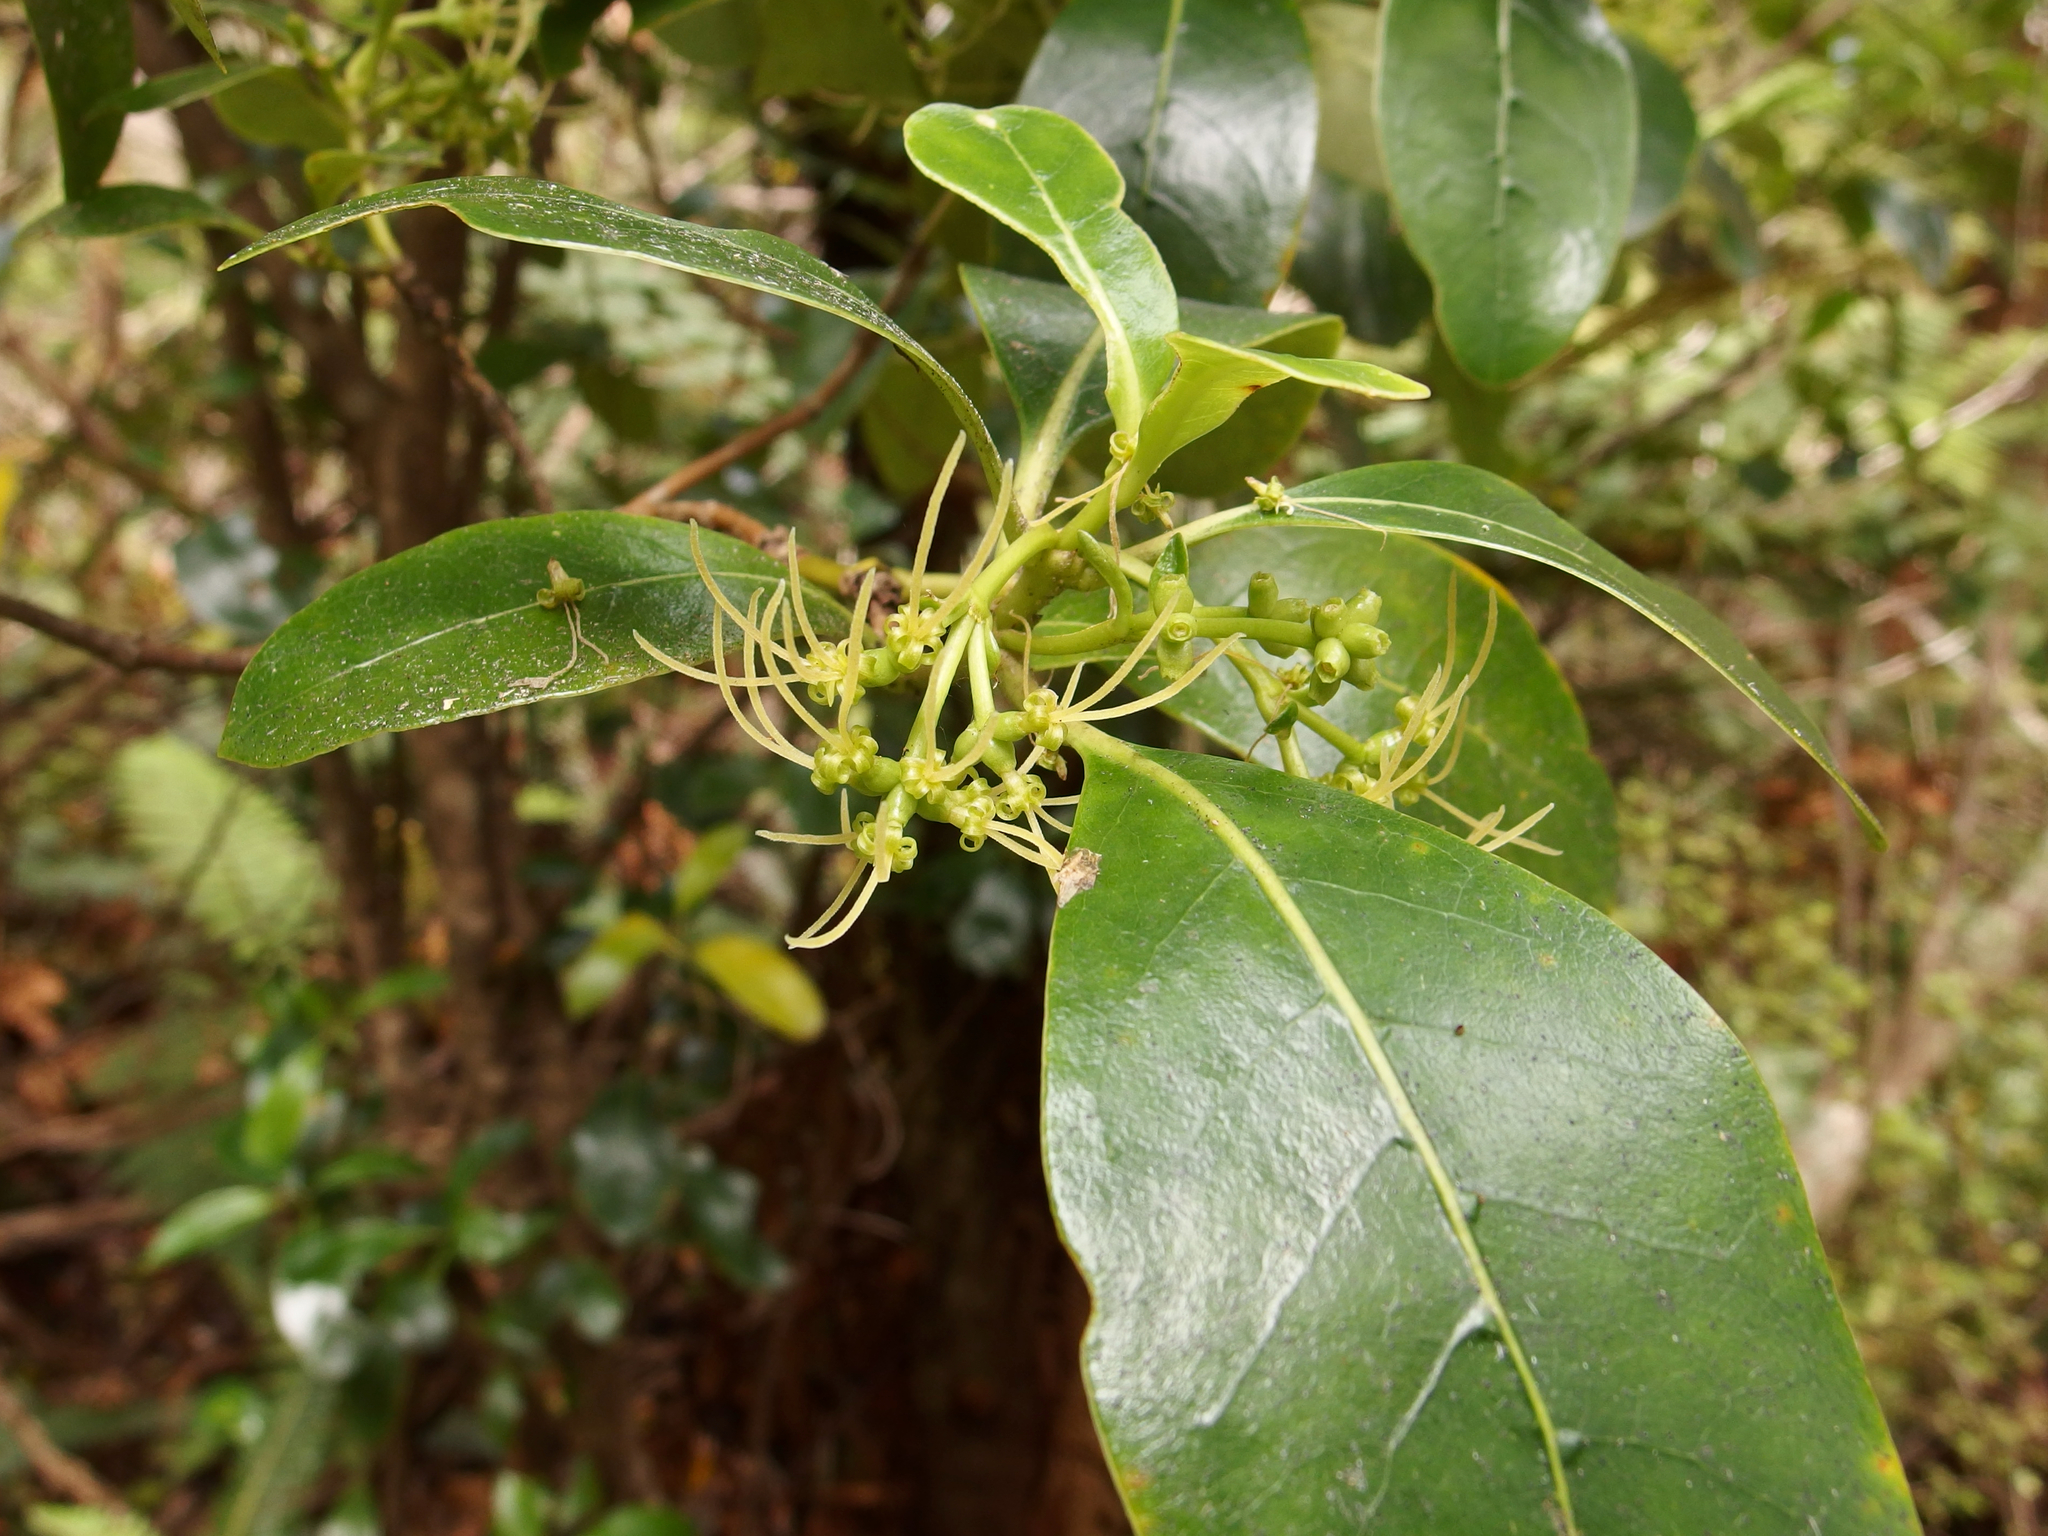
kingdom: Plantae
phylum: Tracheophyta
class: Magnoliopsida
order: Gentianales
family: Rubiaceae
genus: Coprosma
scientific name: Coprosma lucida
